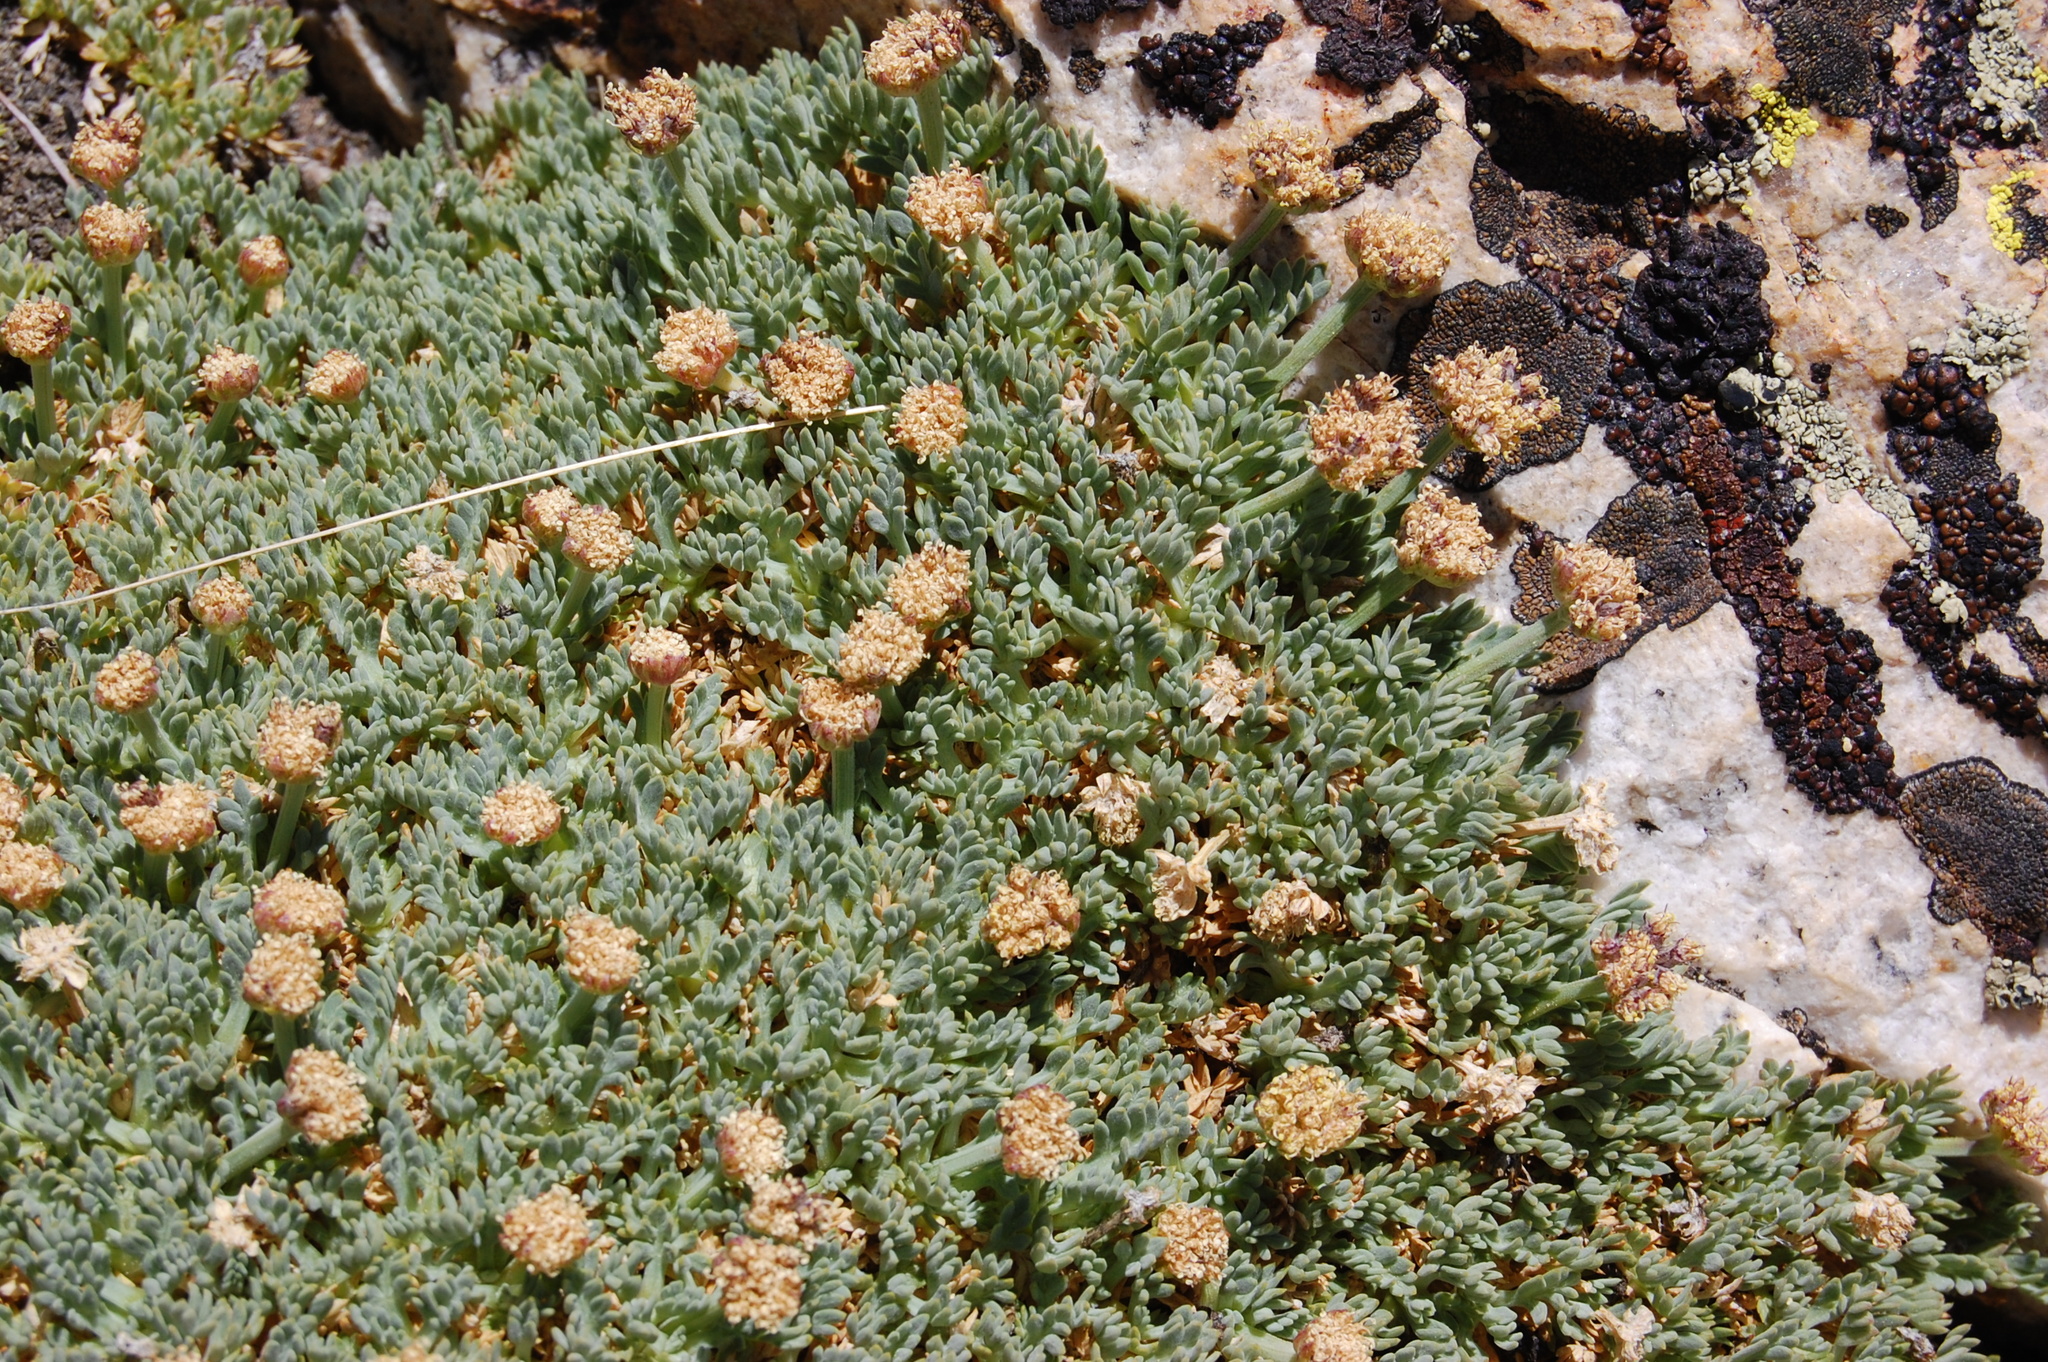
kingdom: Plantae
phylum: Tracheophyta
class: Magnoliopsida
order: Apiales
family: Apiaceae
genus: Podistera
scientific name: Podistera nevadensis
